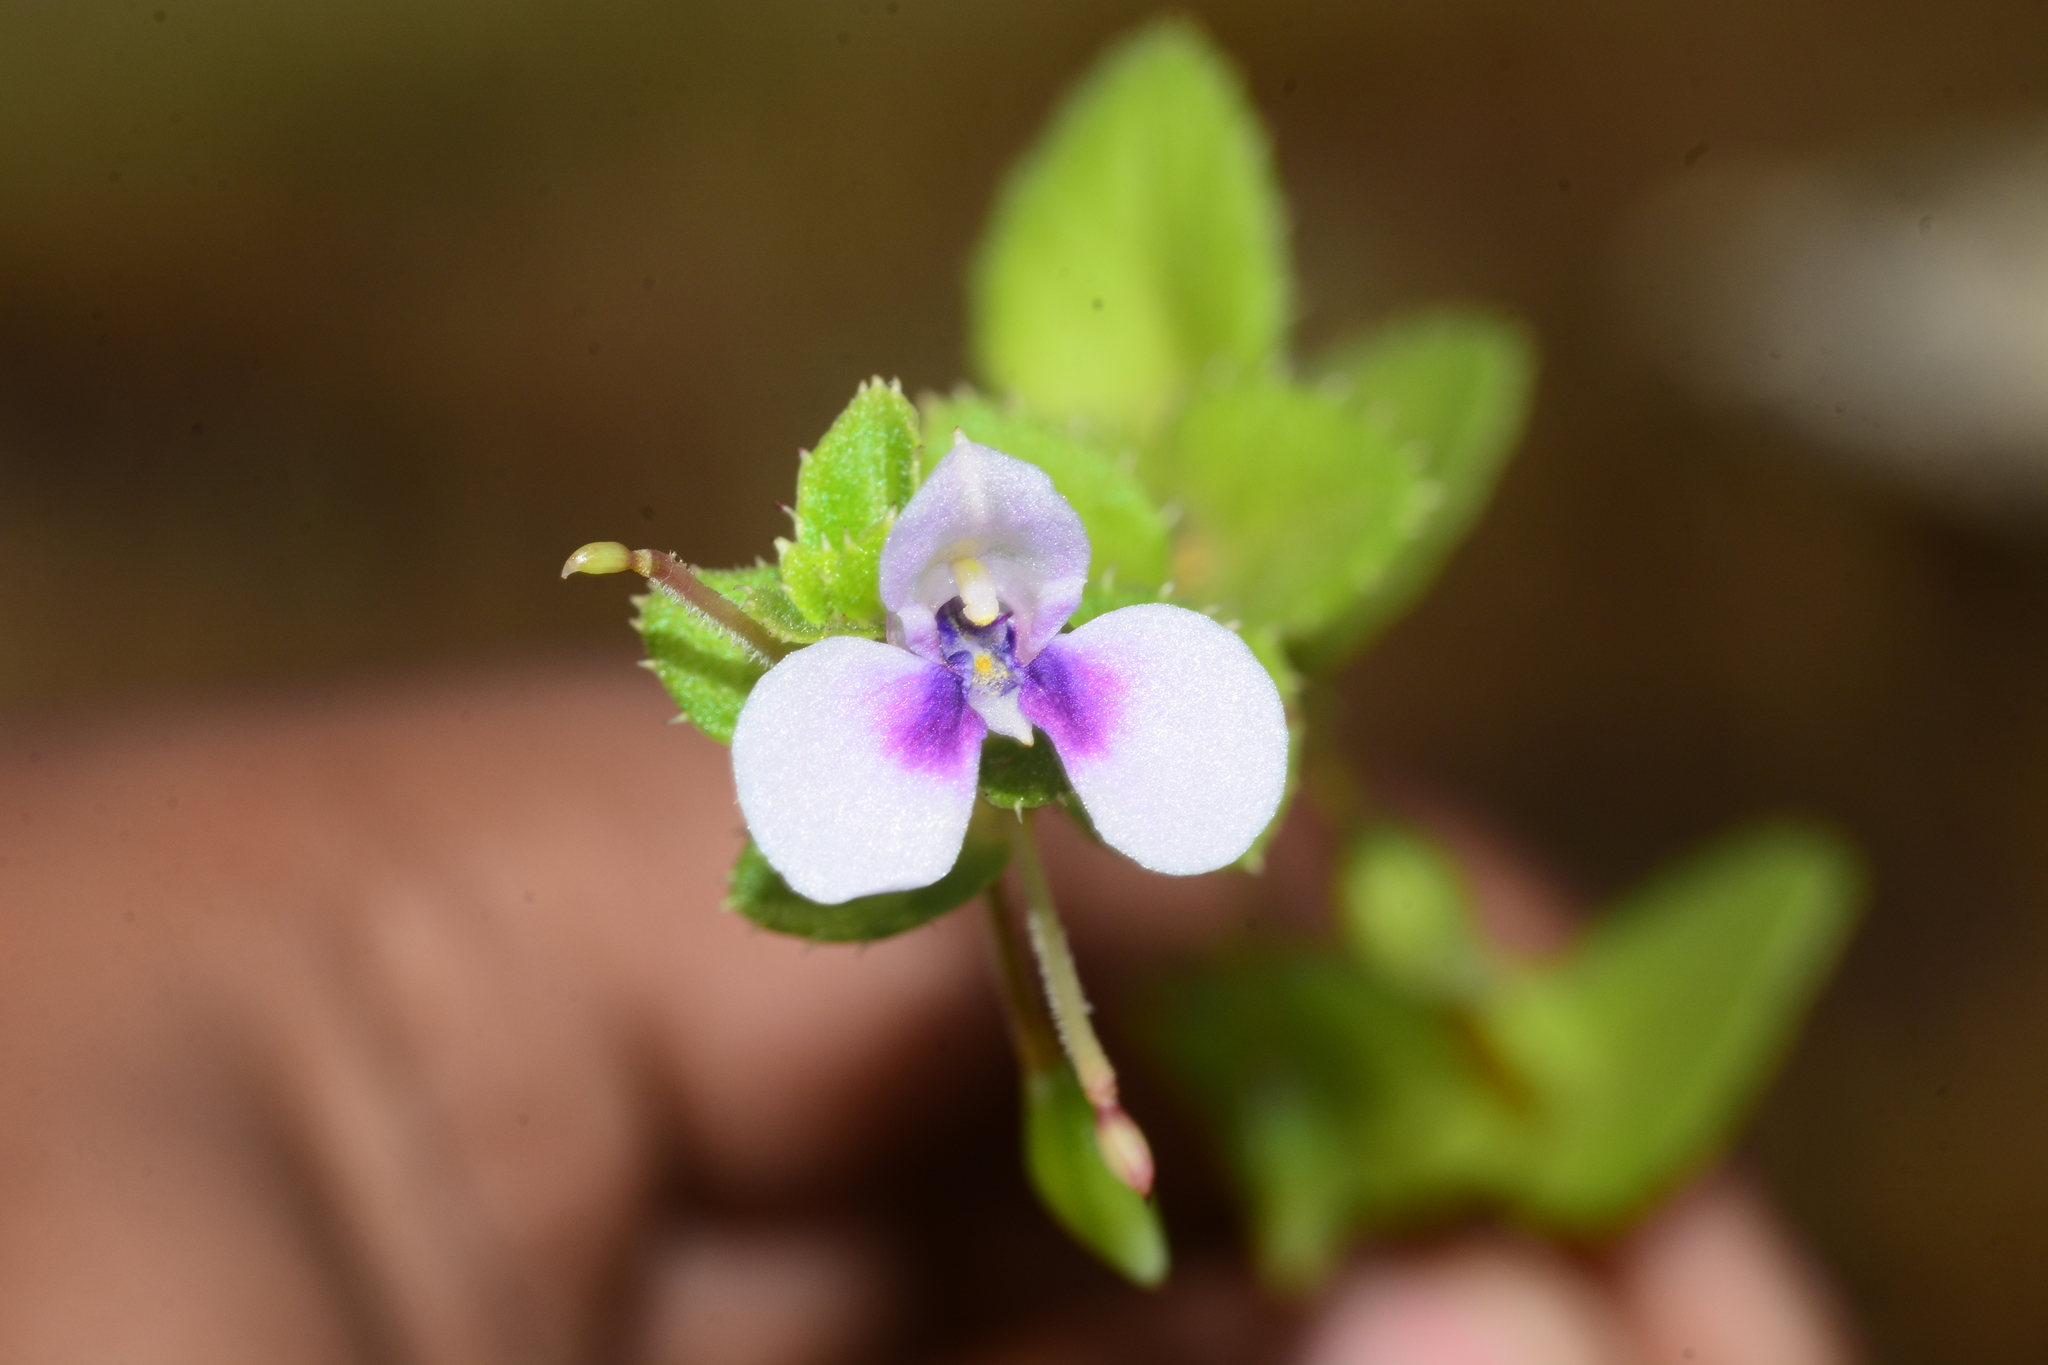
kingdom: Plantae
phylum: Tracheophyta
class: Magnoliopsida
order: Ericales
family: Balsaminaceae
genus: Impatiens
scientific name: Impatiens lawii
